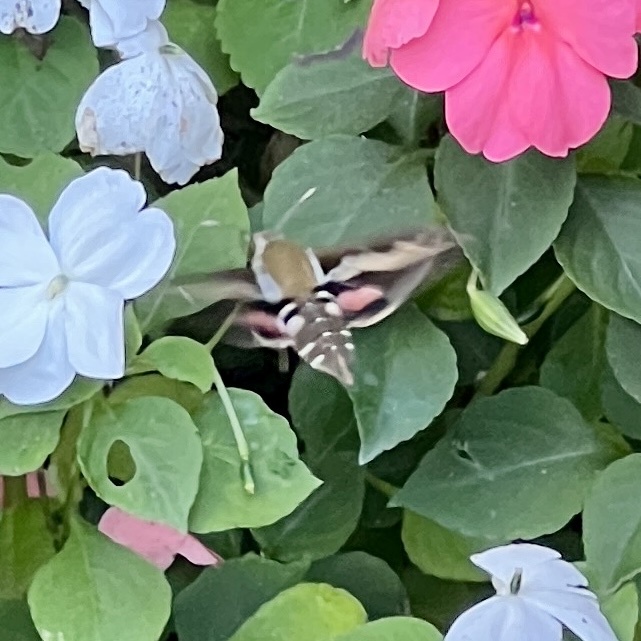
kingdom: Animalia
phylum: Arthropoda
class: Insecta
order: Lepidoptera
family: Sphingidae
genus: Hyles
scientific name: Hyles gallii
